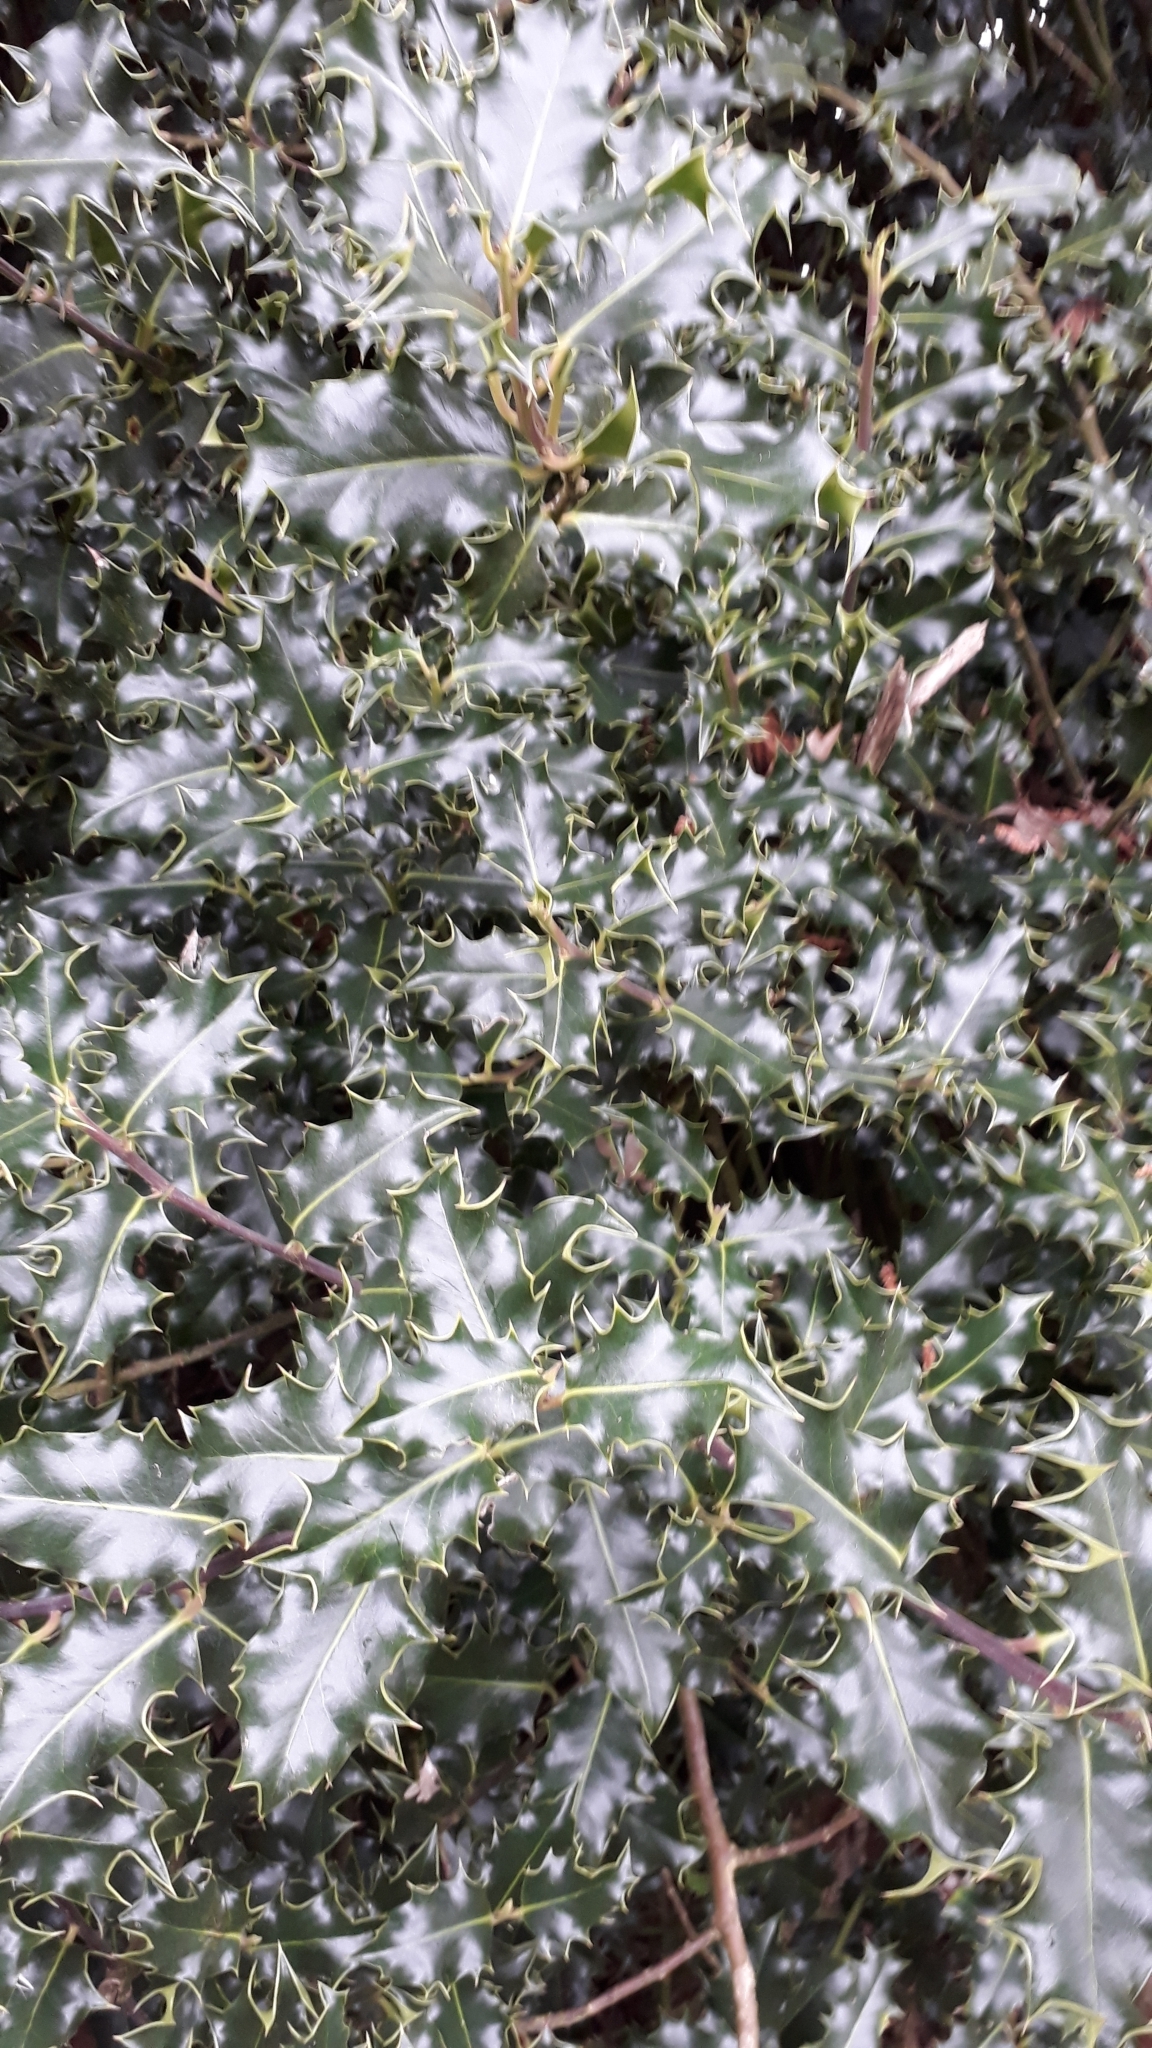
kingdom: Plantae
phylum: Tracheophyta
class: Magnoliopsida
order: Aquifoliales
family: Aquifoliaceae
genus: Ilex
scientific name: Ilex aquifolium
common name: English holly
